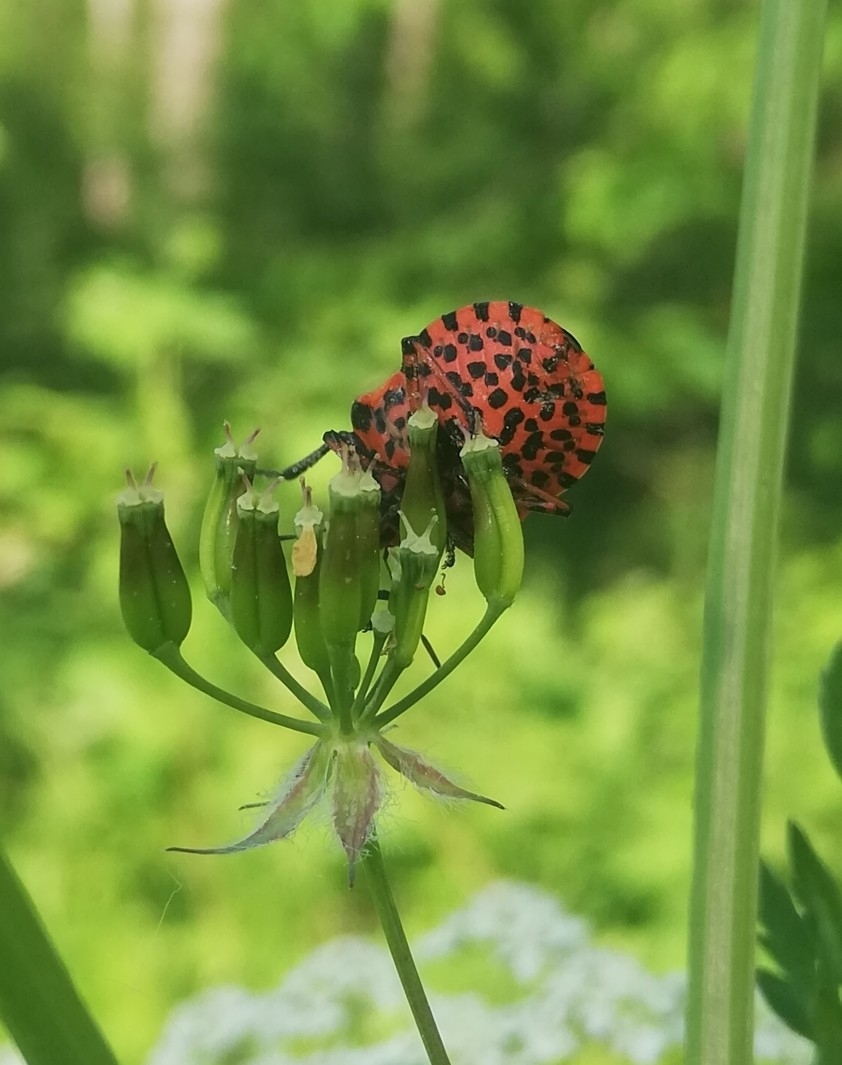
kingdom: Animalia
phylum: Arthropoda
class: Insecta
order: Hemiptera
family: Pentatomidae
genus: Graphosoma
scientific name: Graphosoma italicum
